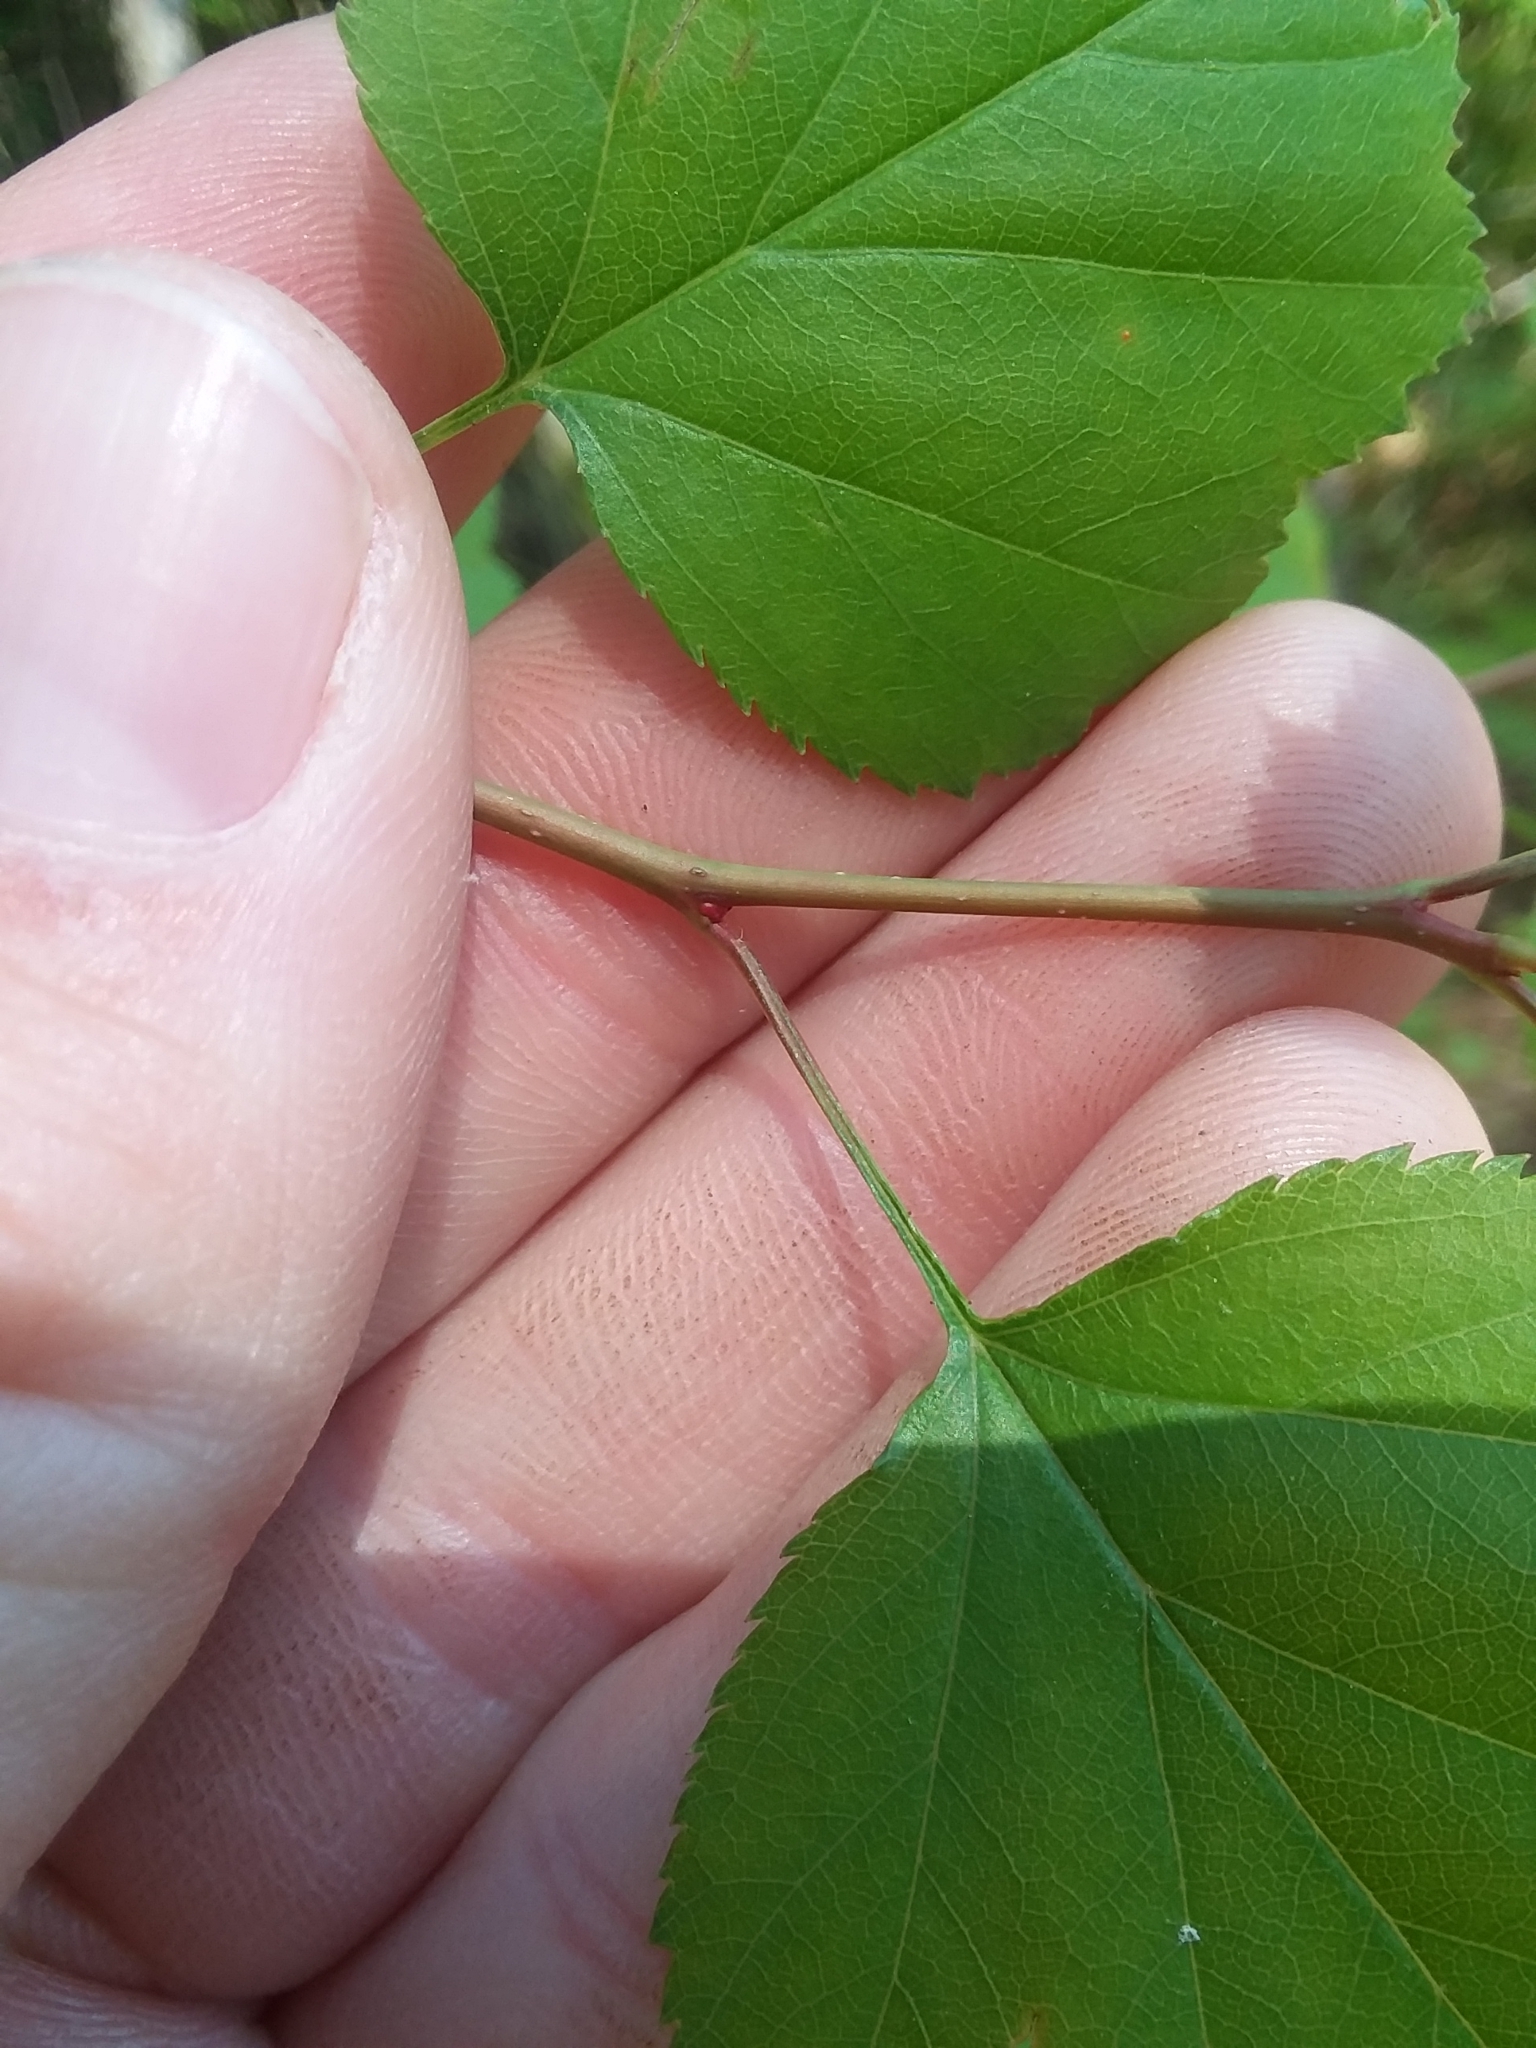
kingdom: Plantae
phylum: Tracheophyta
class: Magnoliopsida
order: Rosales
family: Rosaceae
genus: Crataegus
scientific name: Crataegus gattingeri
